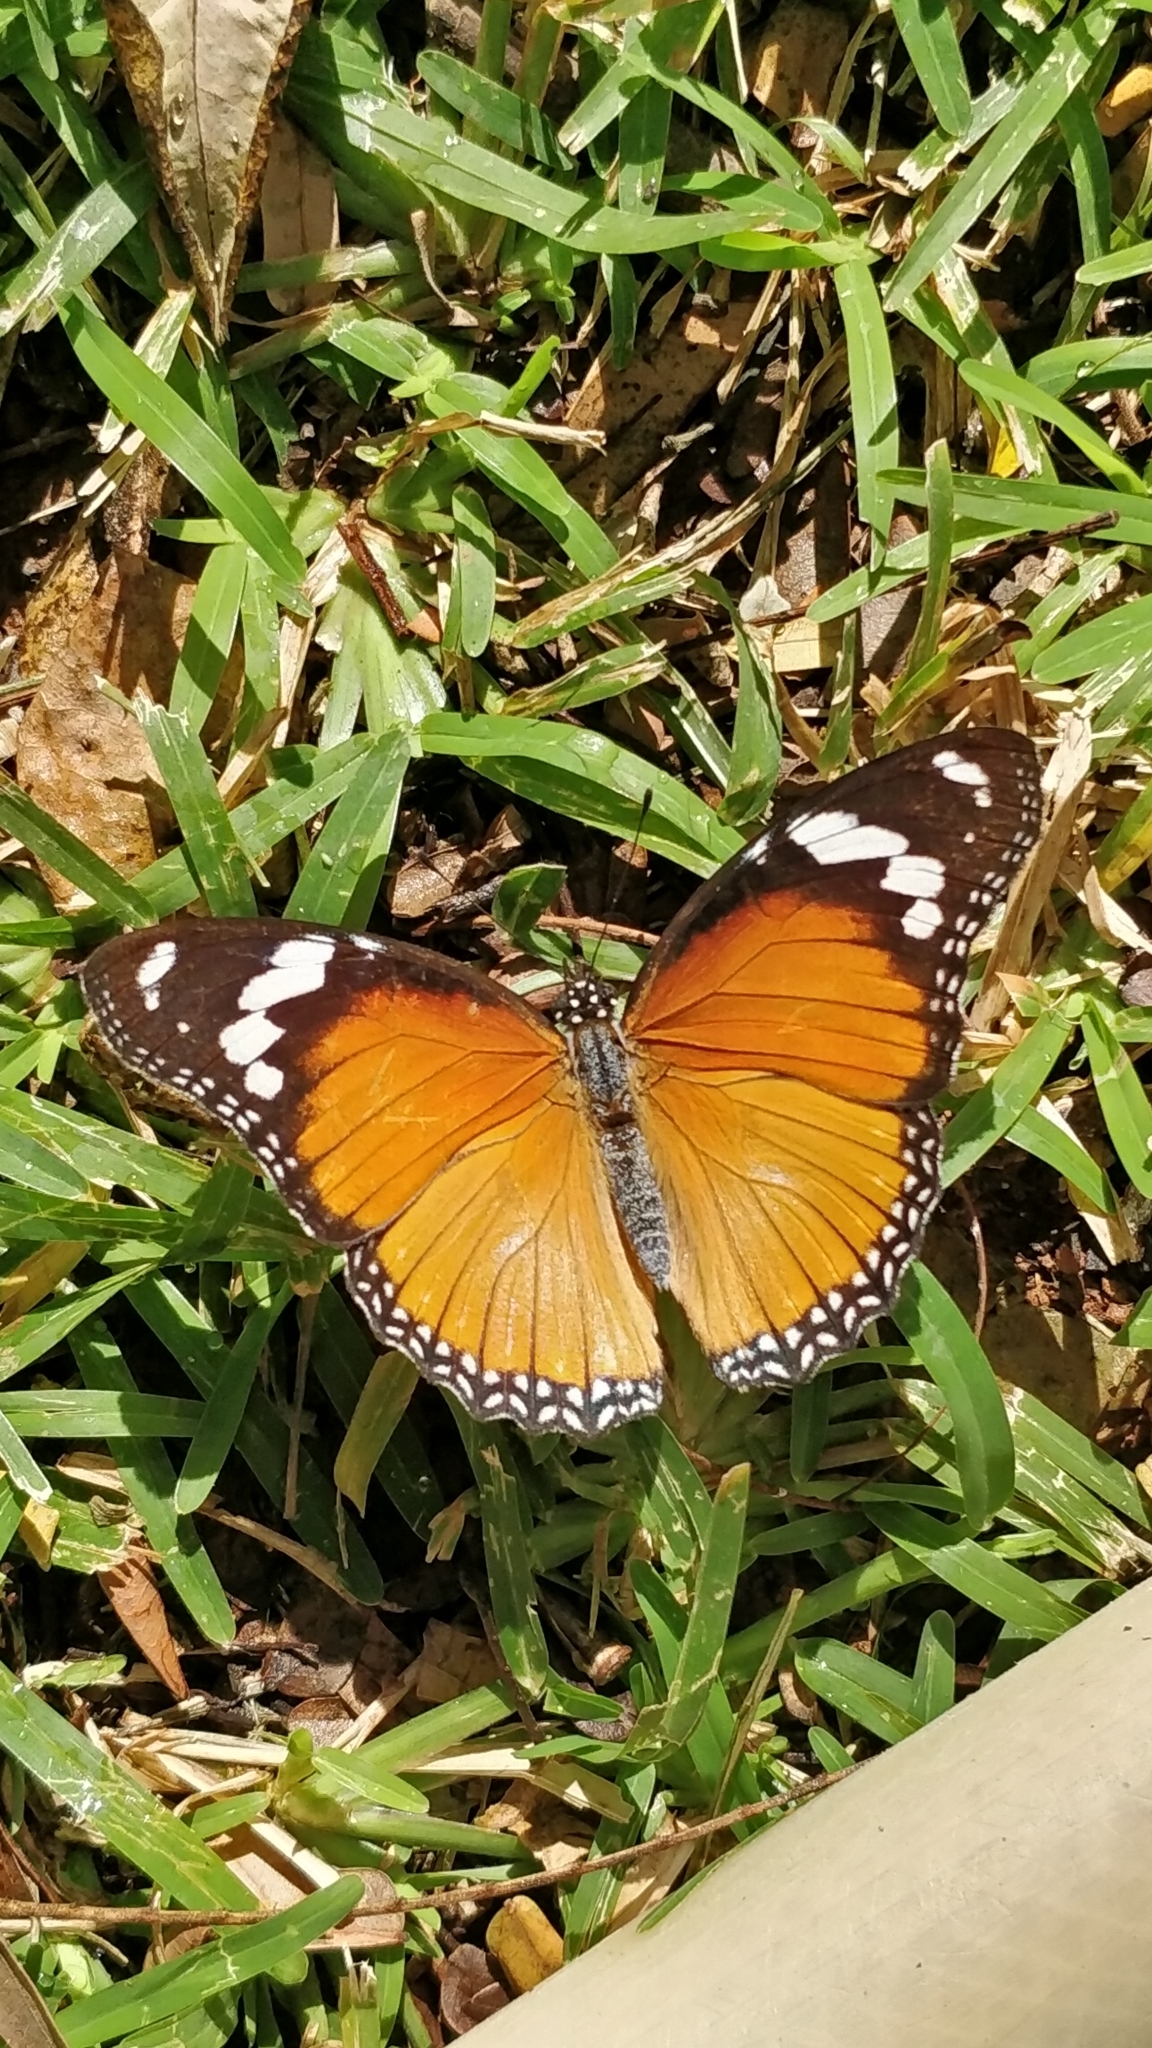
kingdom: Animalia
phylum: Arthropoda
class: Insecta
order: Lepidoptera
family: Nymphalidae
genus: Hypolimnas
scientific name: Hypolimnas misippus
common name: False plain tiger
